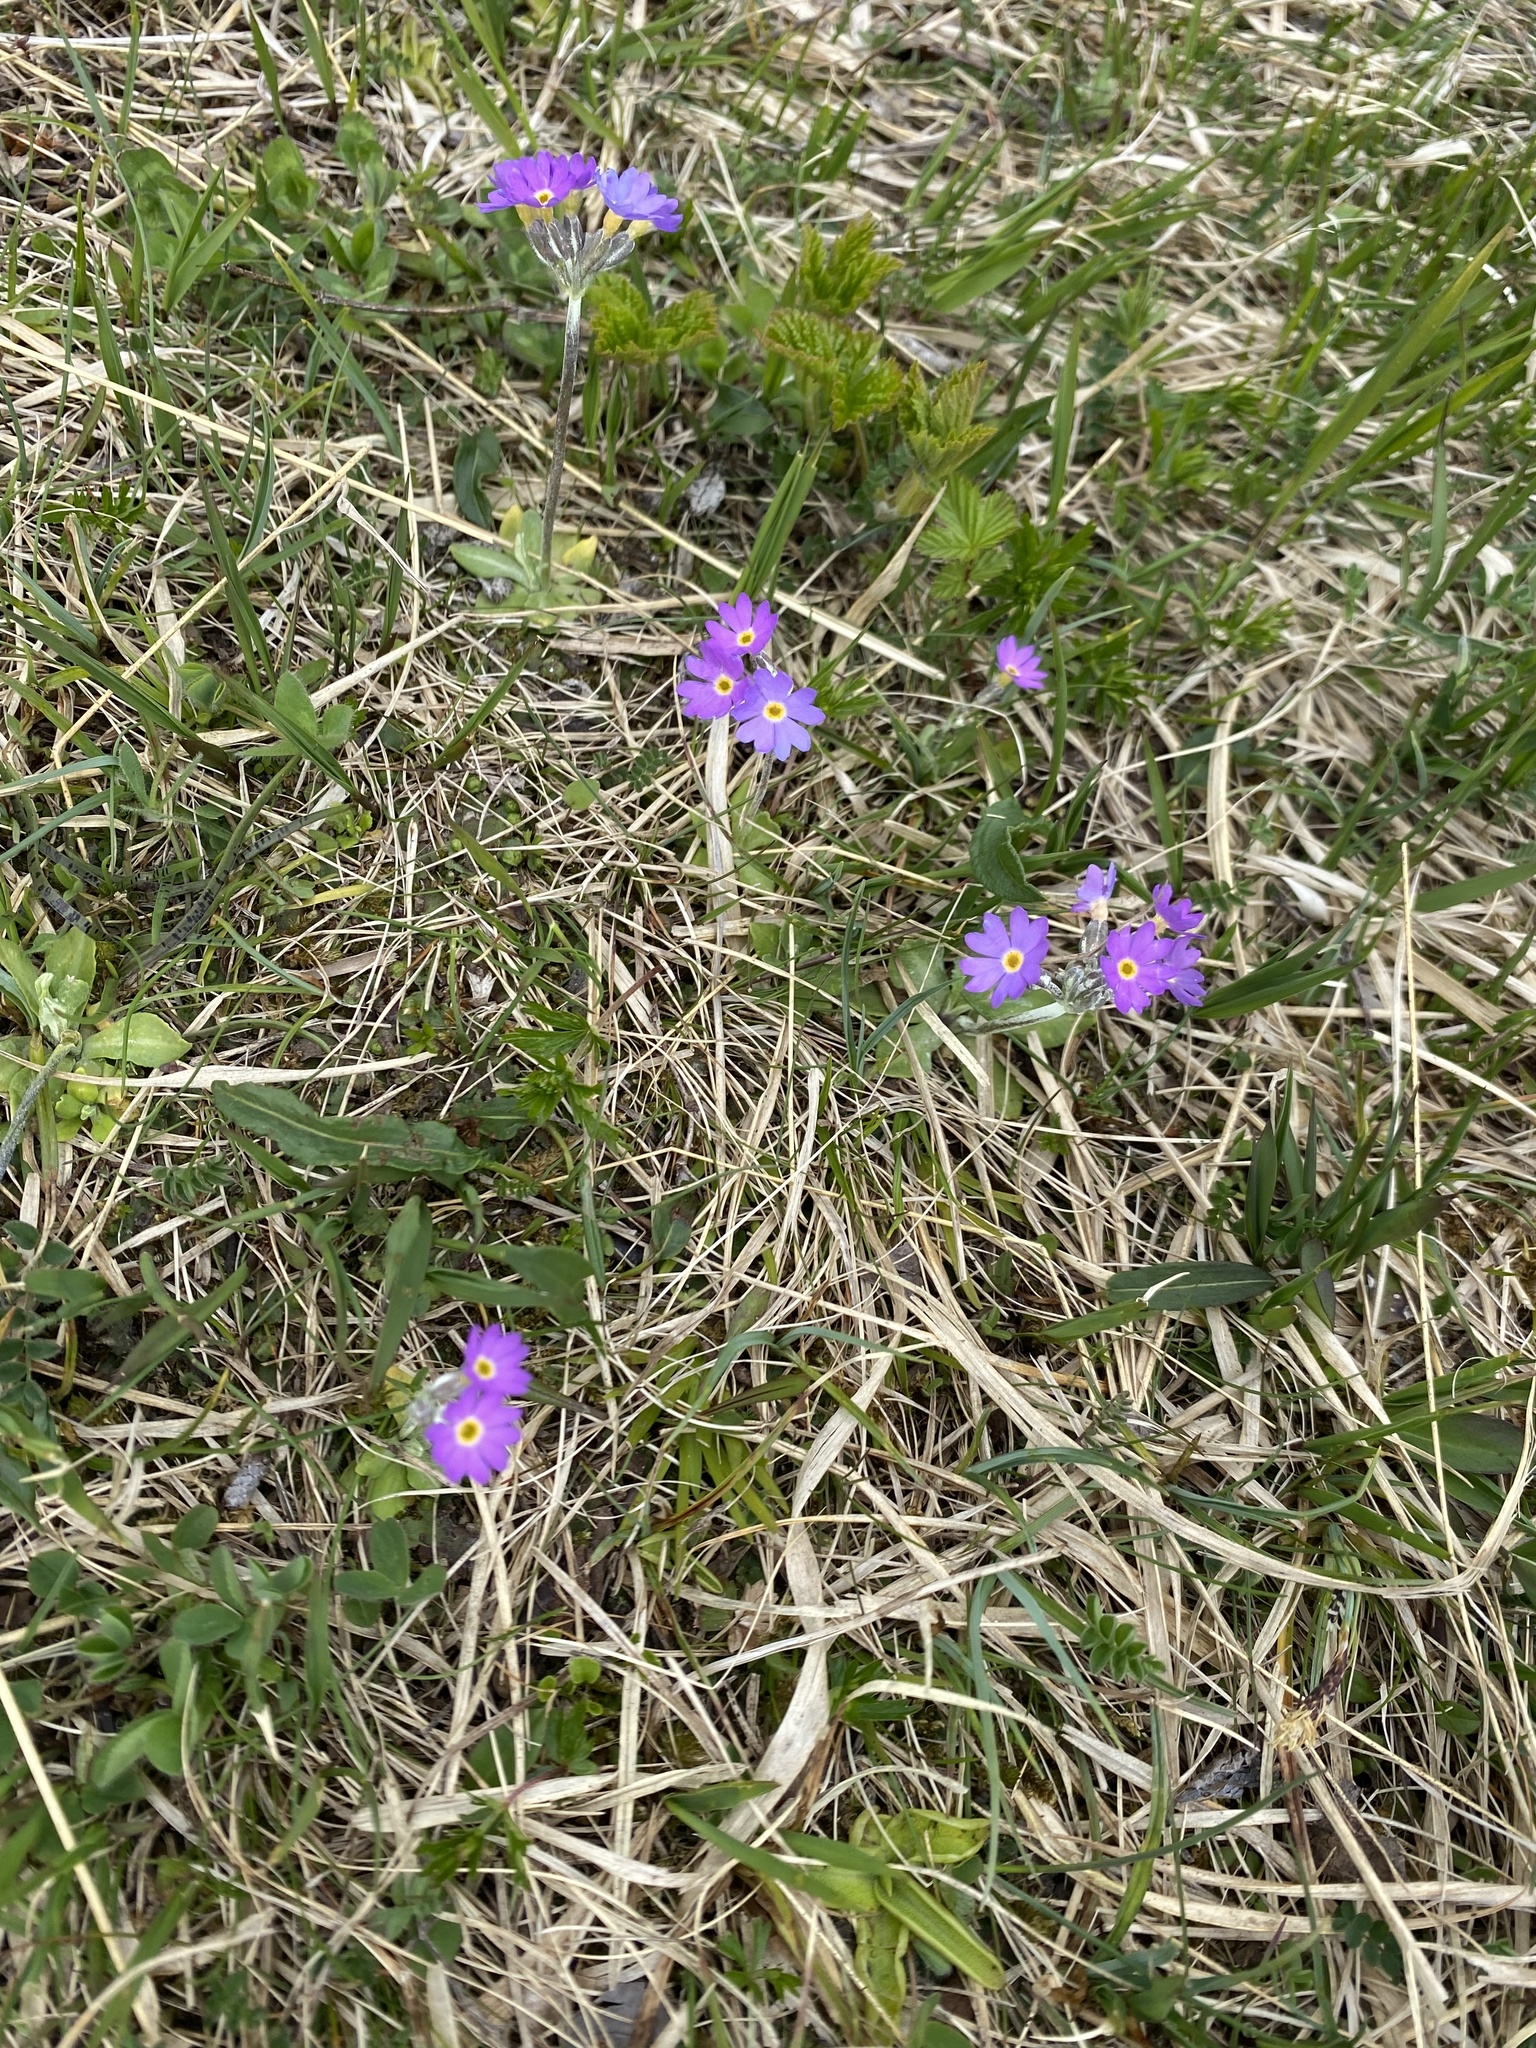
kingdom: Plantae
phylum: Tracheophyta
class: Magnoliopsida
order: Ericales
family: Primulaceae
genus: Primula
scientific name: Primula scandinavica
